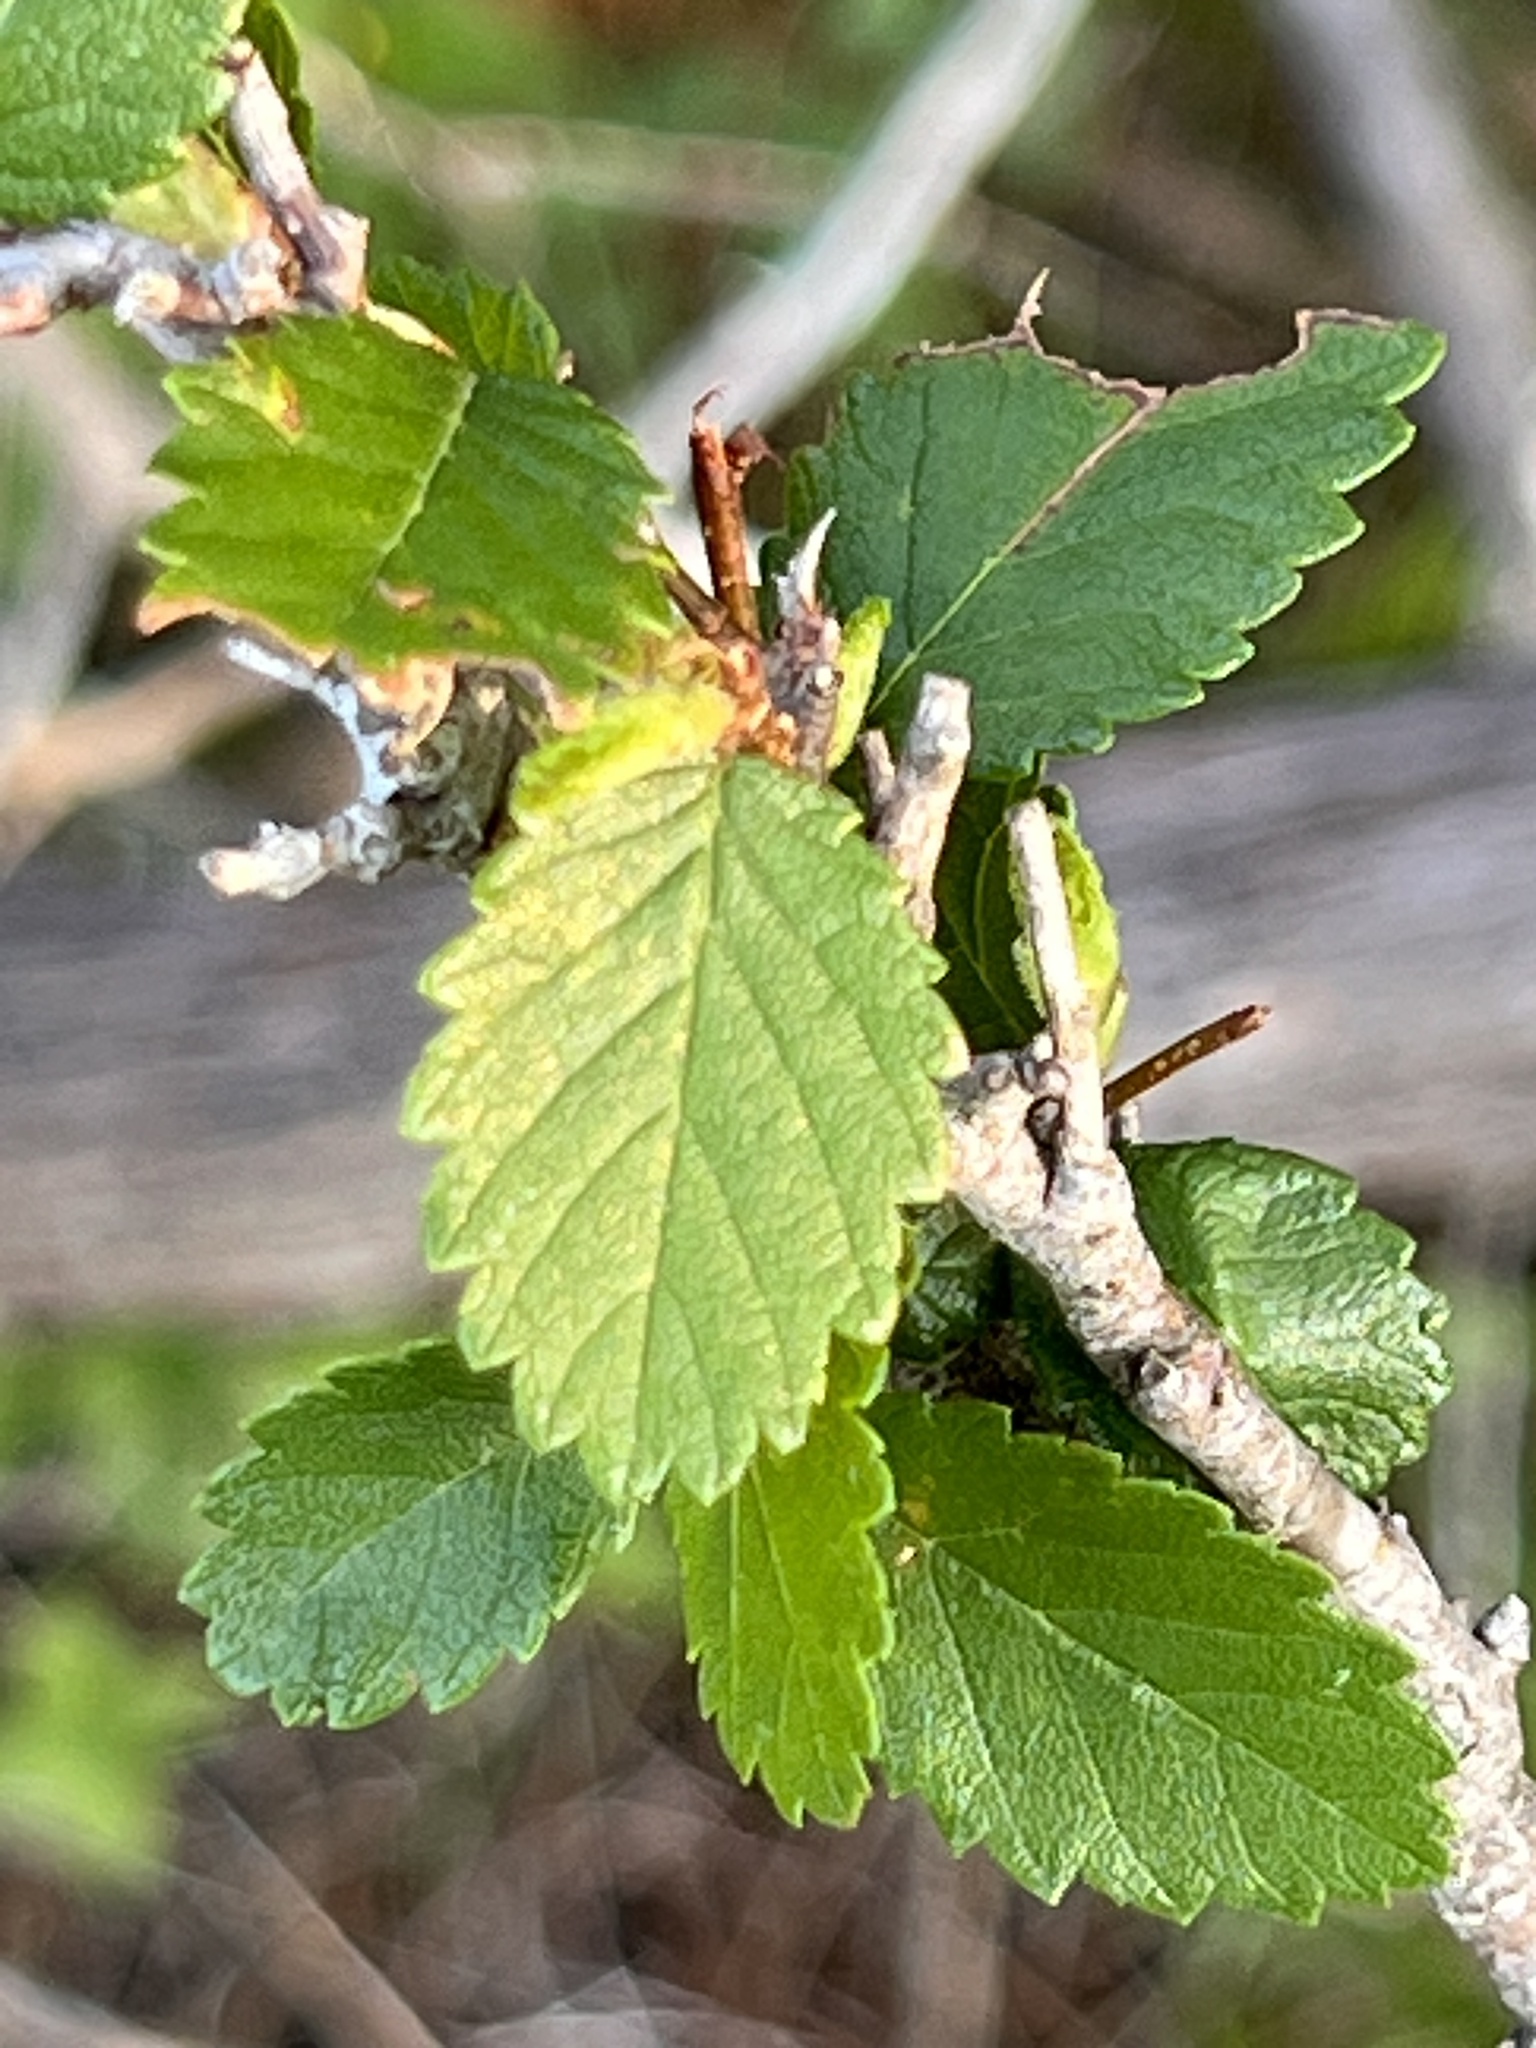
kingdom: Plantae
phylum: Tracheophyta
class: Magnoliopsida
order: Rosales
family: Ulmaceae
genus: Ulmus
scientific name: Ulmus crassifolia
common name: Basket elm
